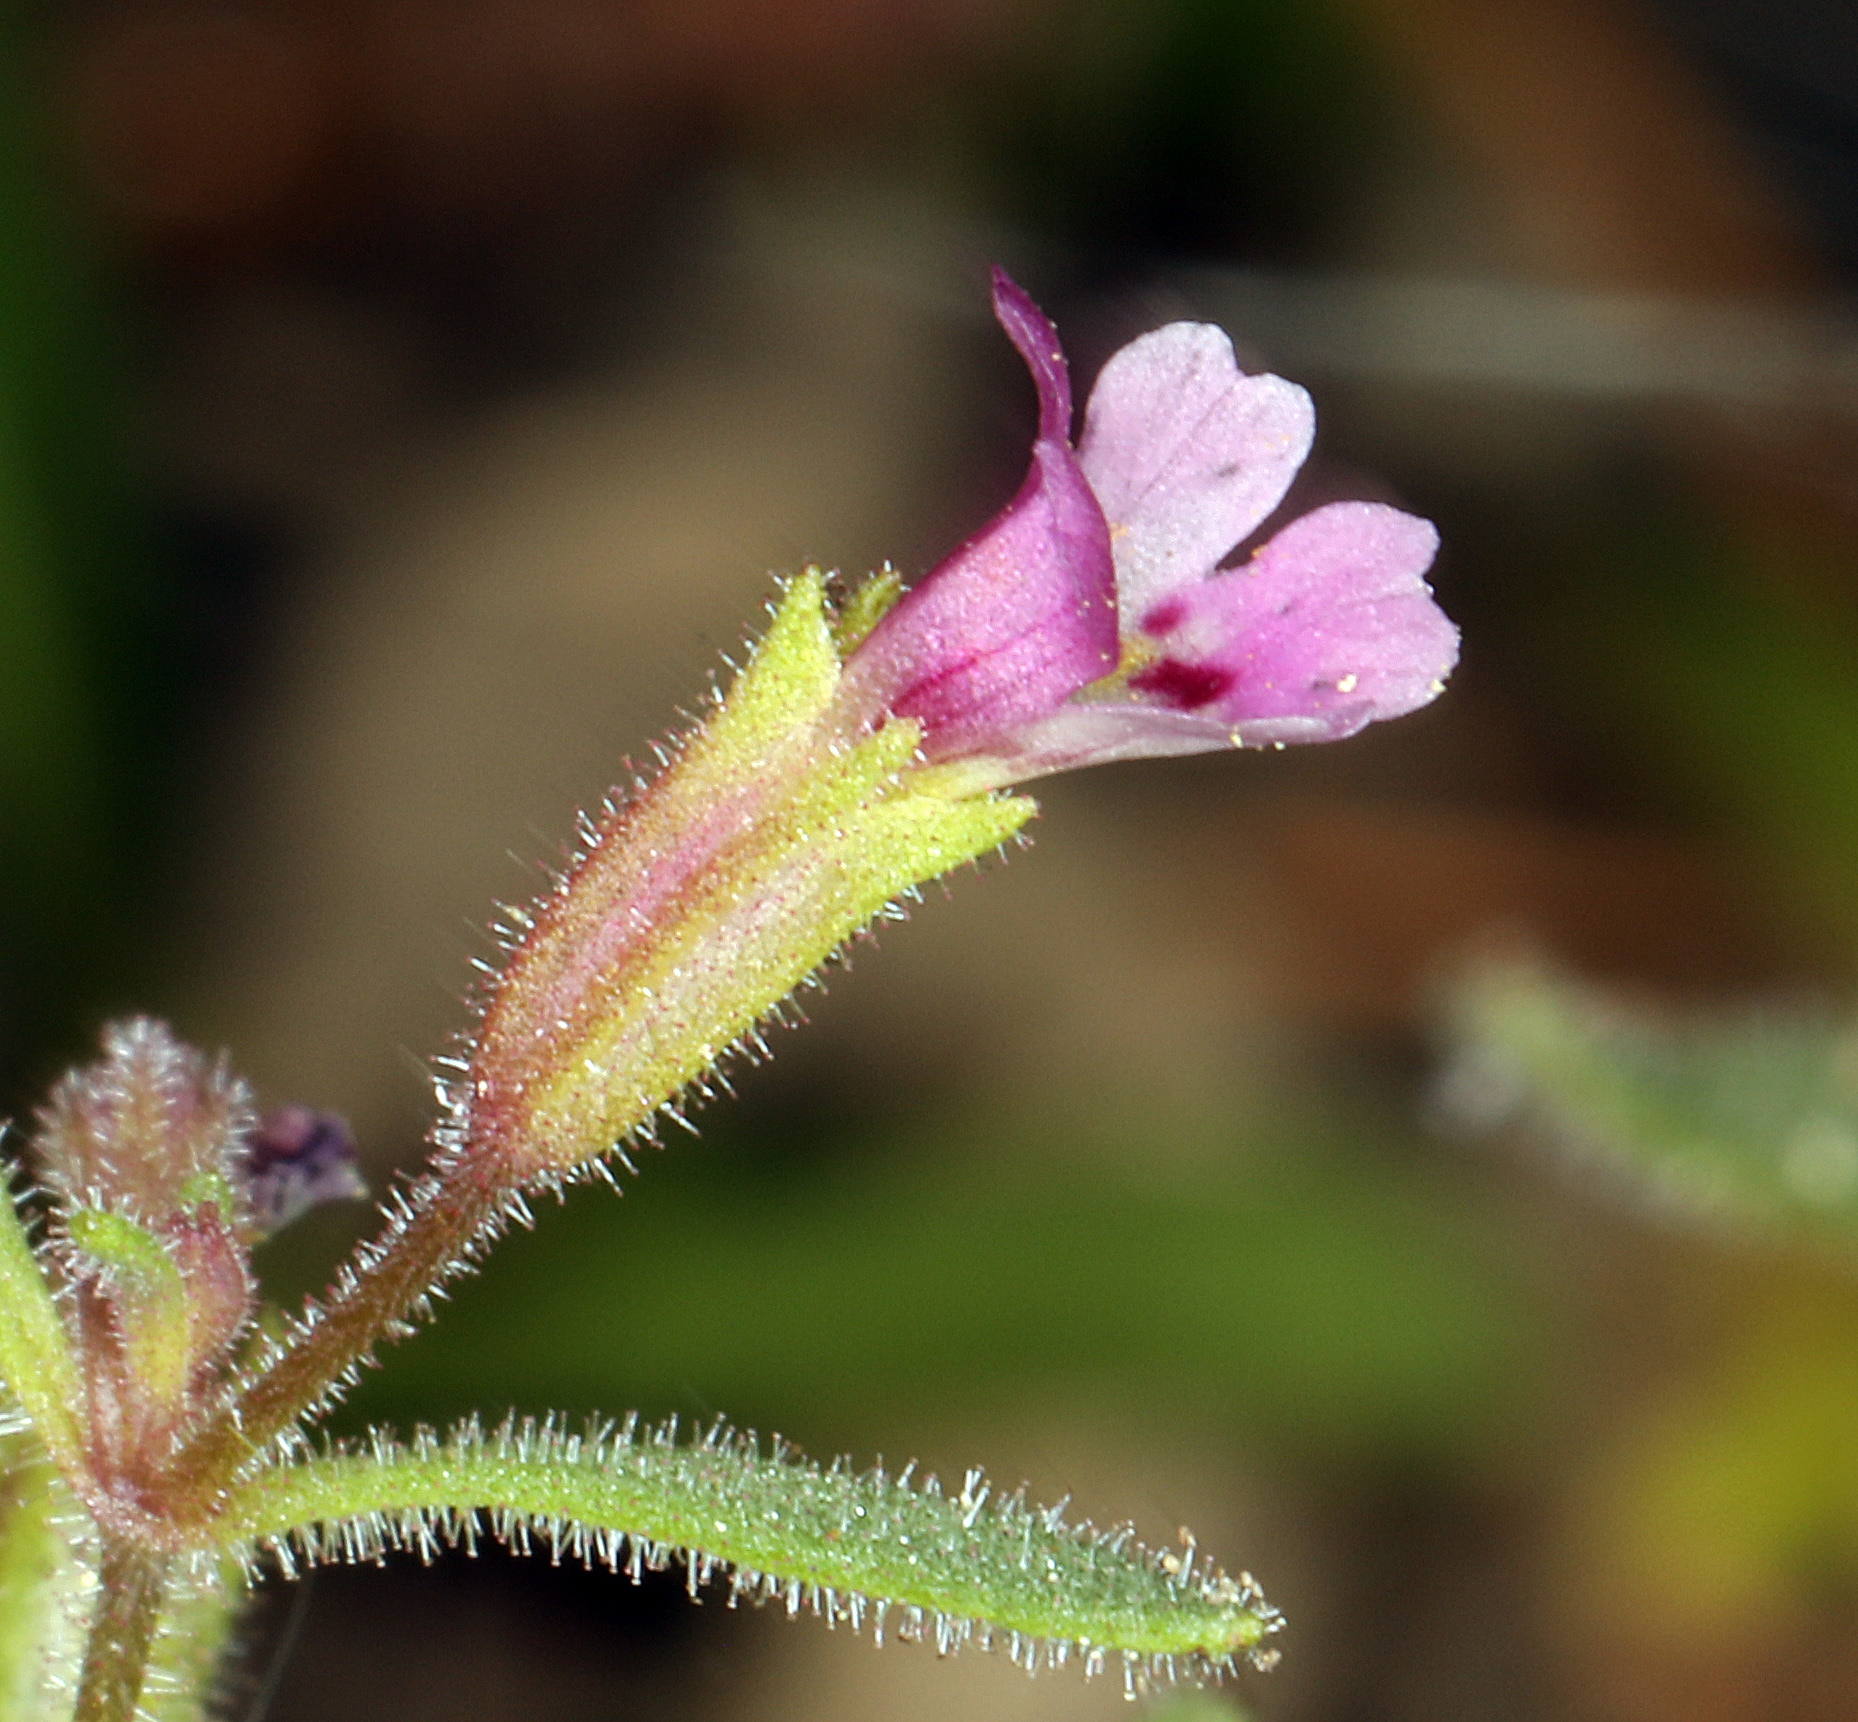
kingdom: Plantae
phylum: Tracheophyta
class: Magnoliopsida
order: Lamiales
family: Phrymaceae
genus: Erythranthe
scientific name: Erythranthe breweri
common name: Brewer's monkeyflower
